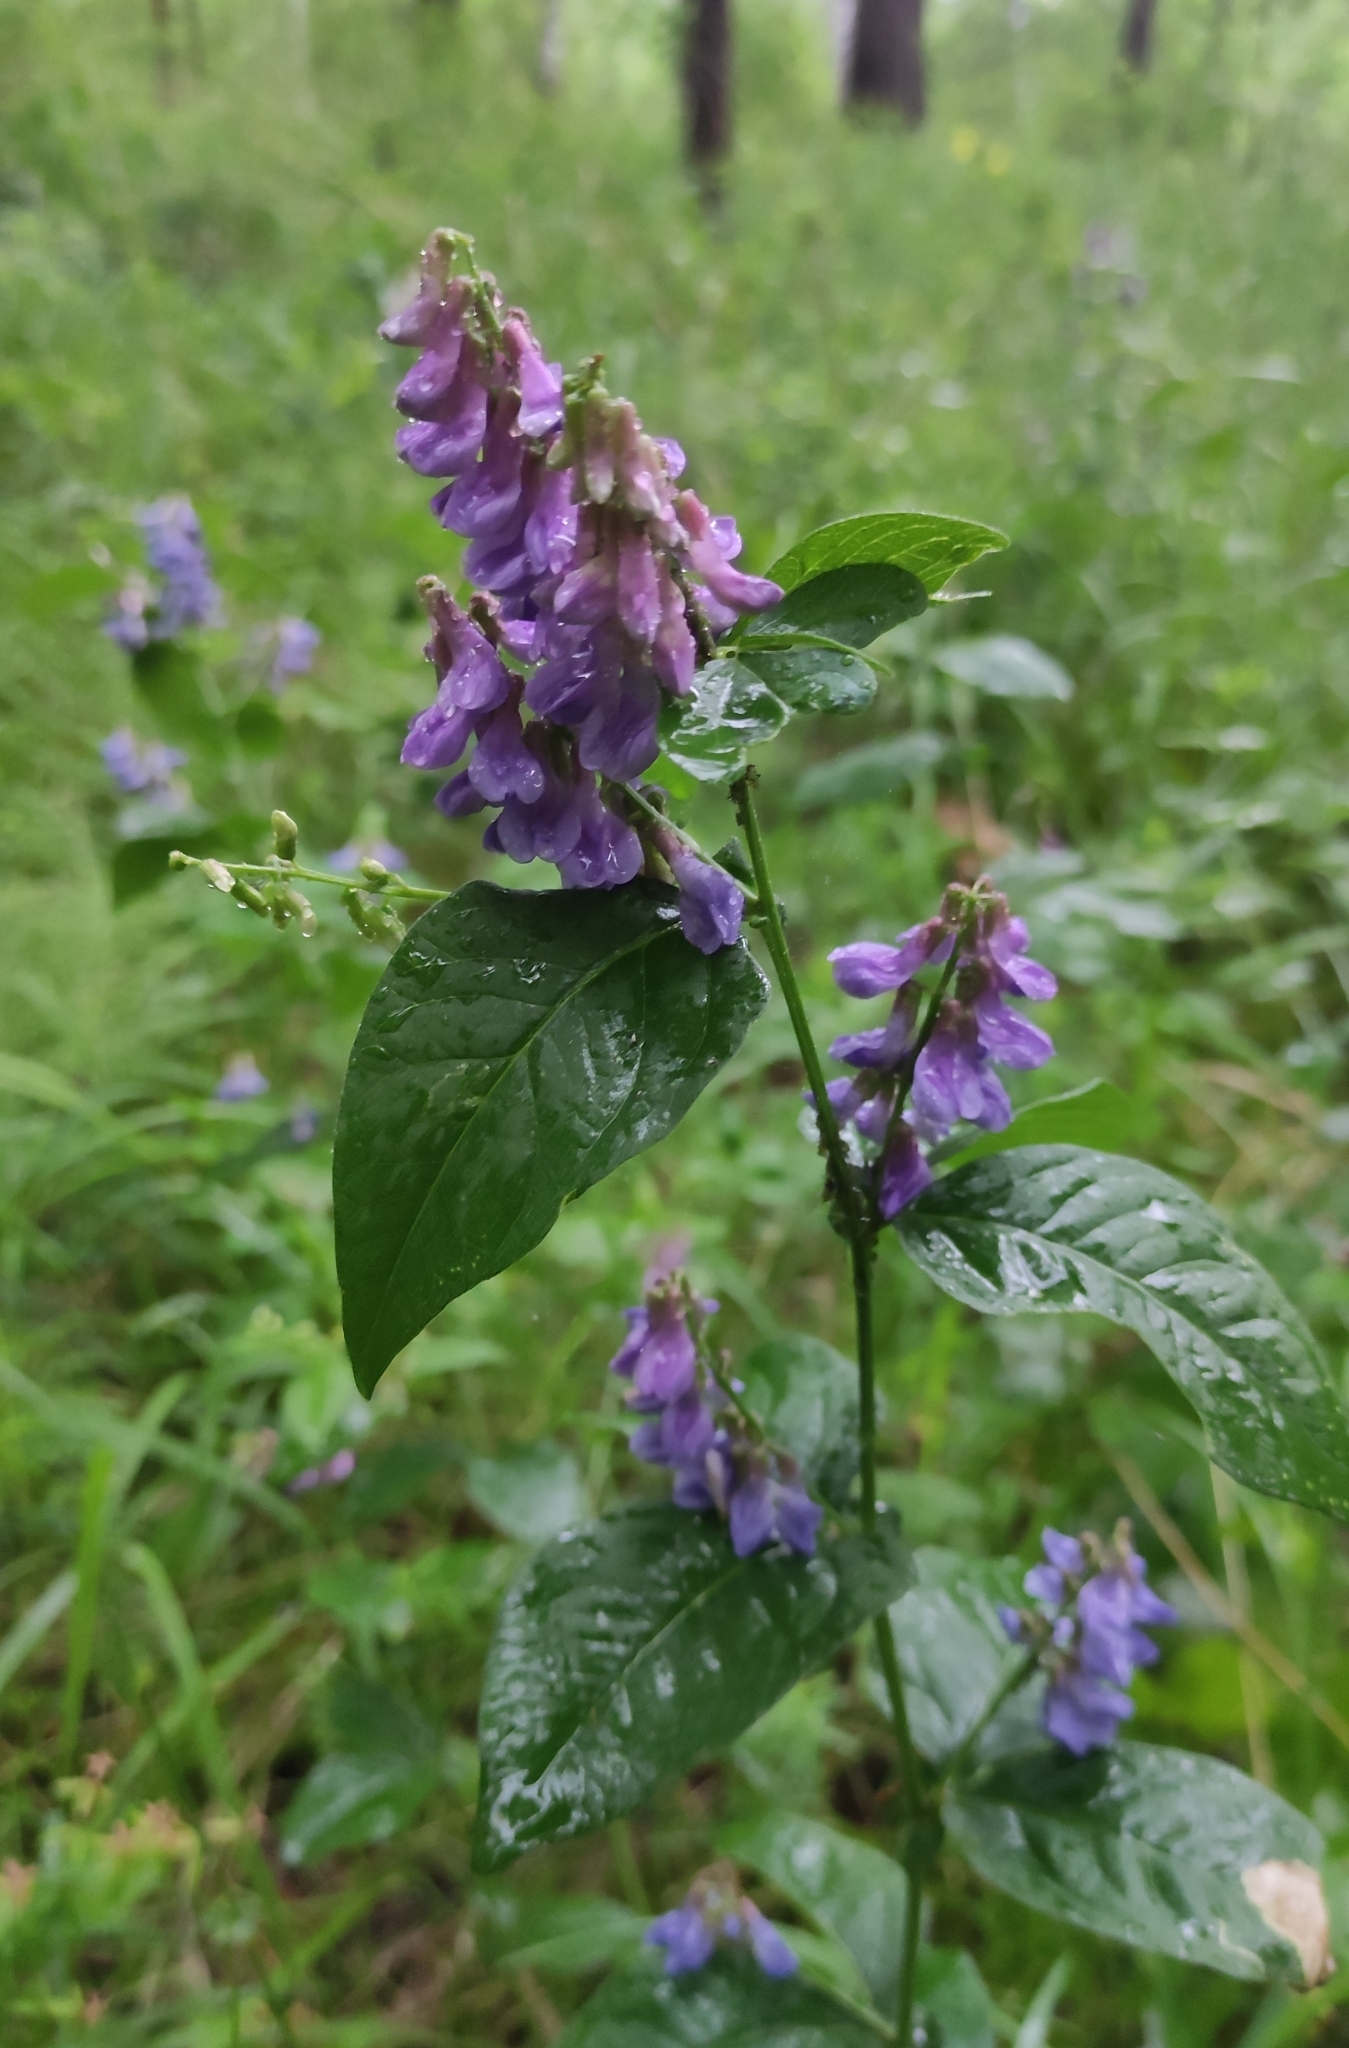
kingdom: Plantae
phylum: Tracheophyta
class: Magnoliopsida
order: Fabales
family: Fabaceae
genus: Vicia
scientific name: Vicia unijuga
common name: Two-leaf vetch
